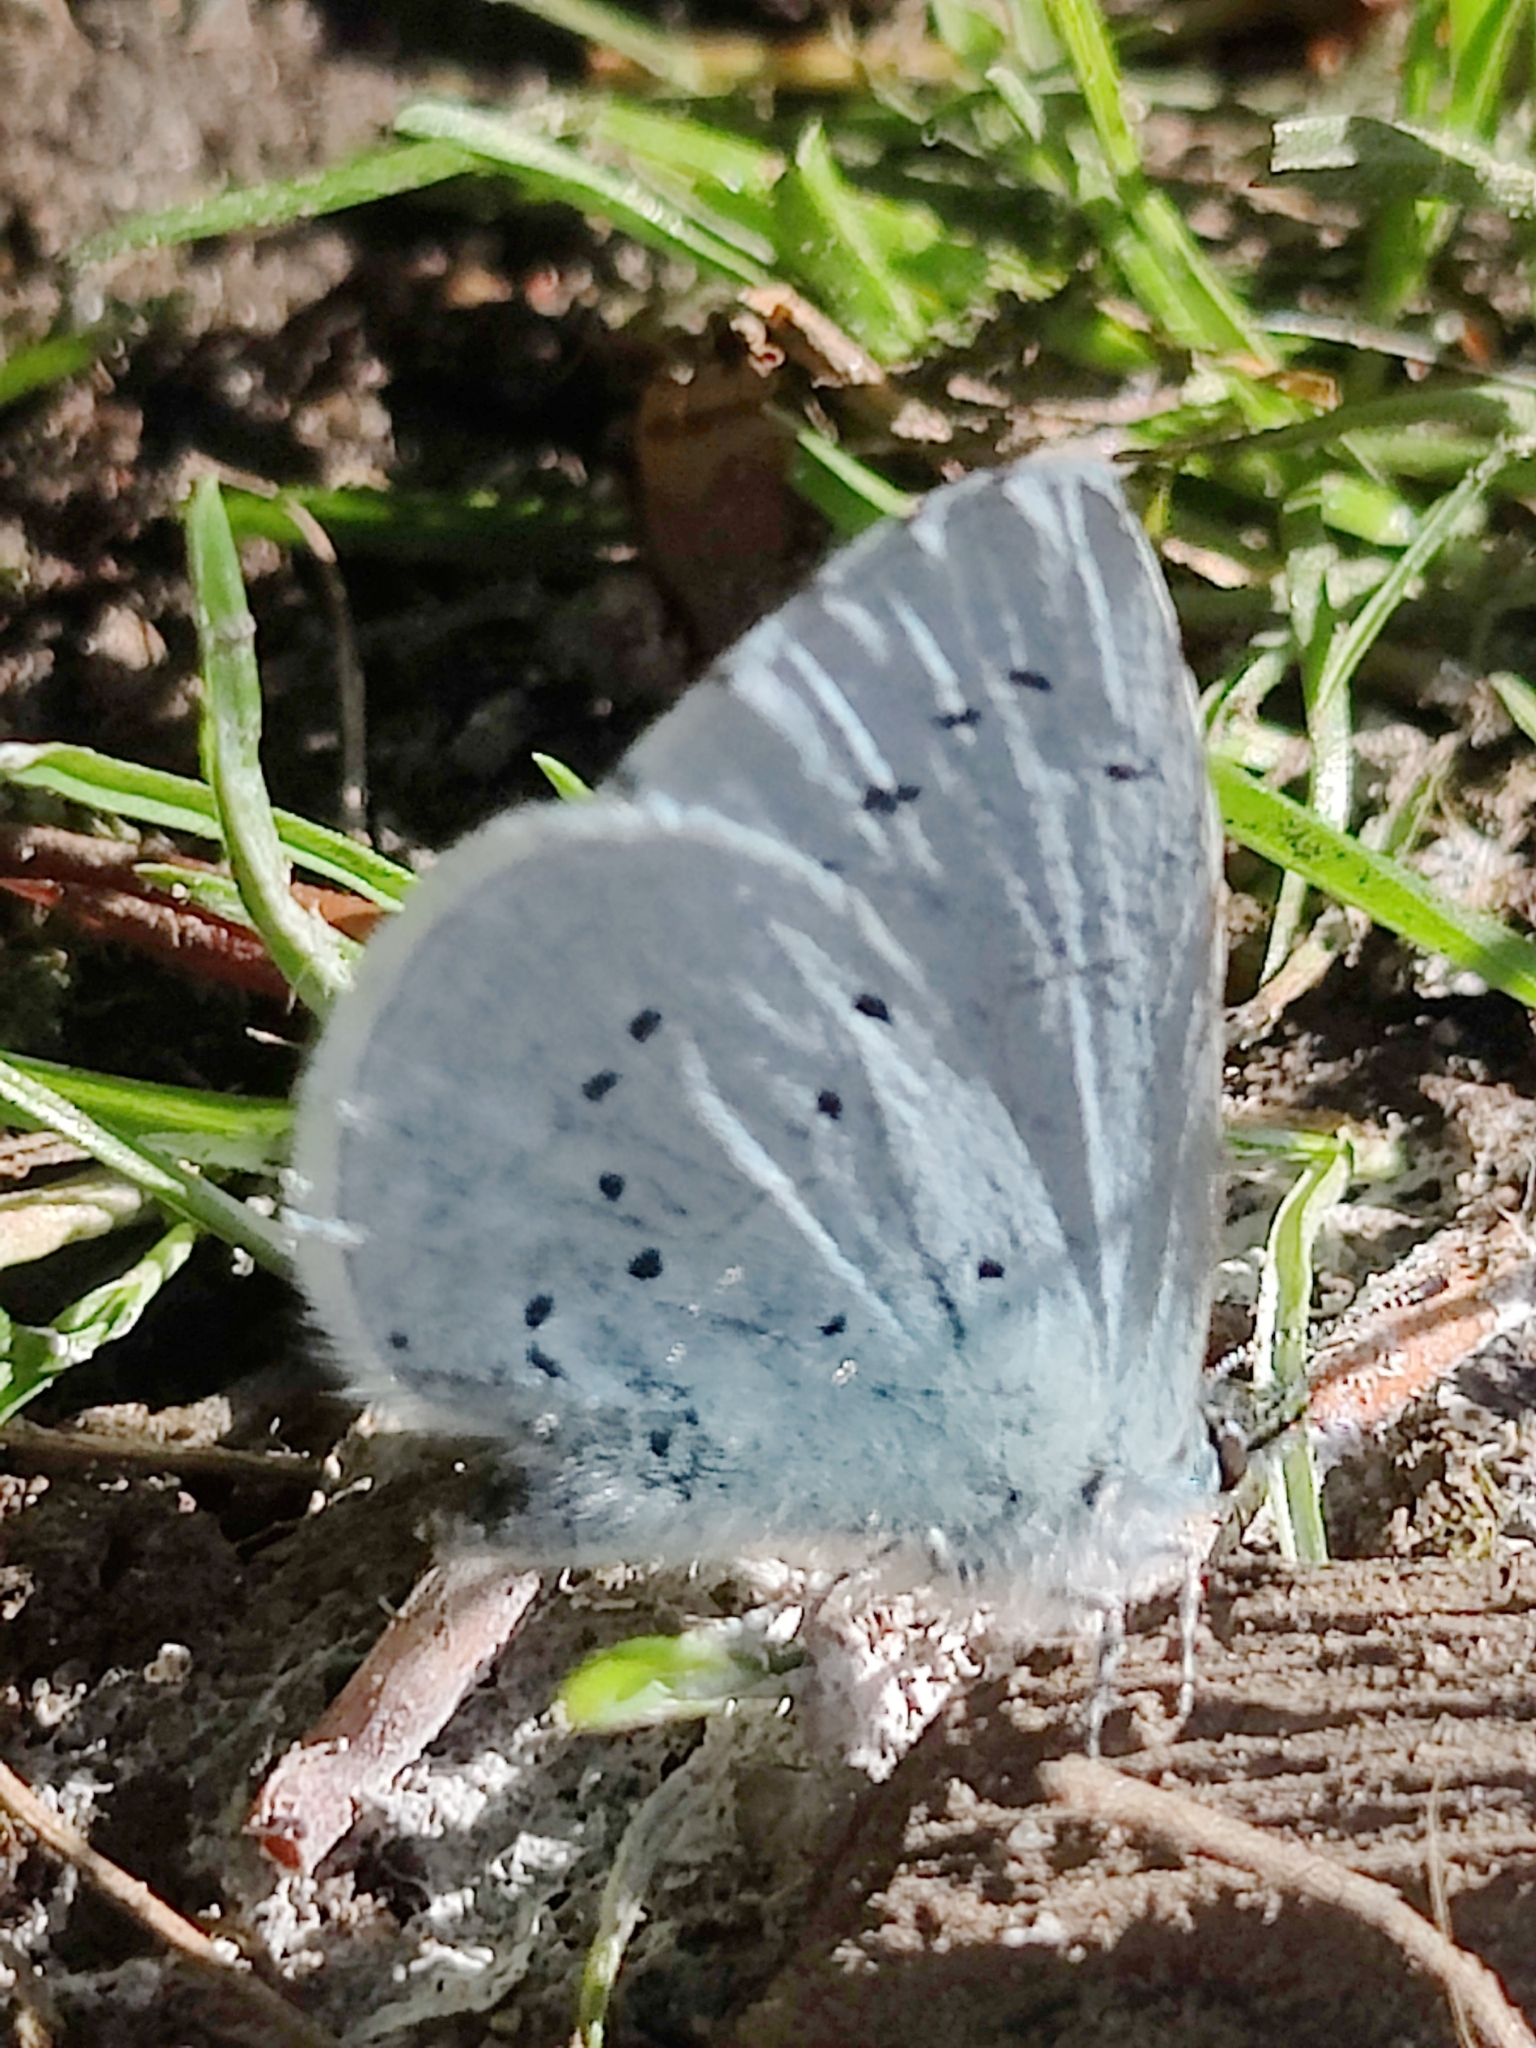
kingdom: Animalia
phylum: Arthropoda
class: Insecta
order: Lepidoptera
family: Lycaenidae
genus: Celastrina
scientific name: Celastrina argiolus
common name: Holly blue
